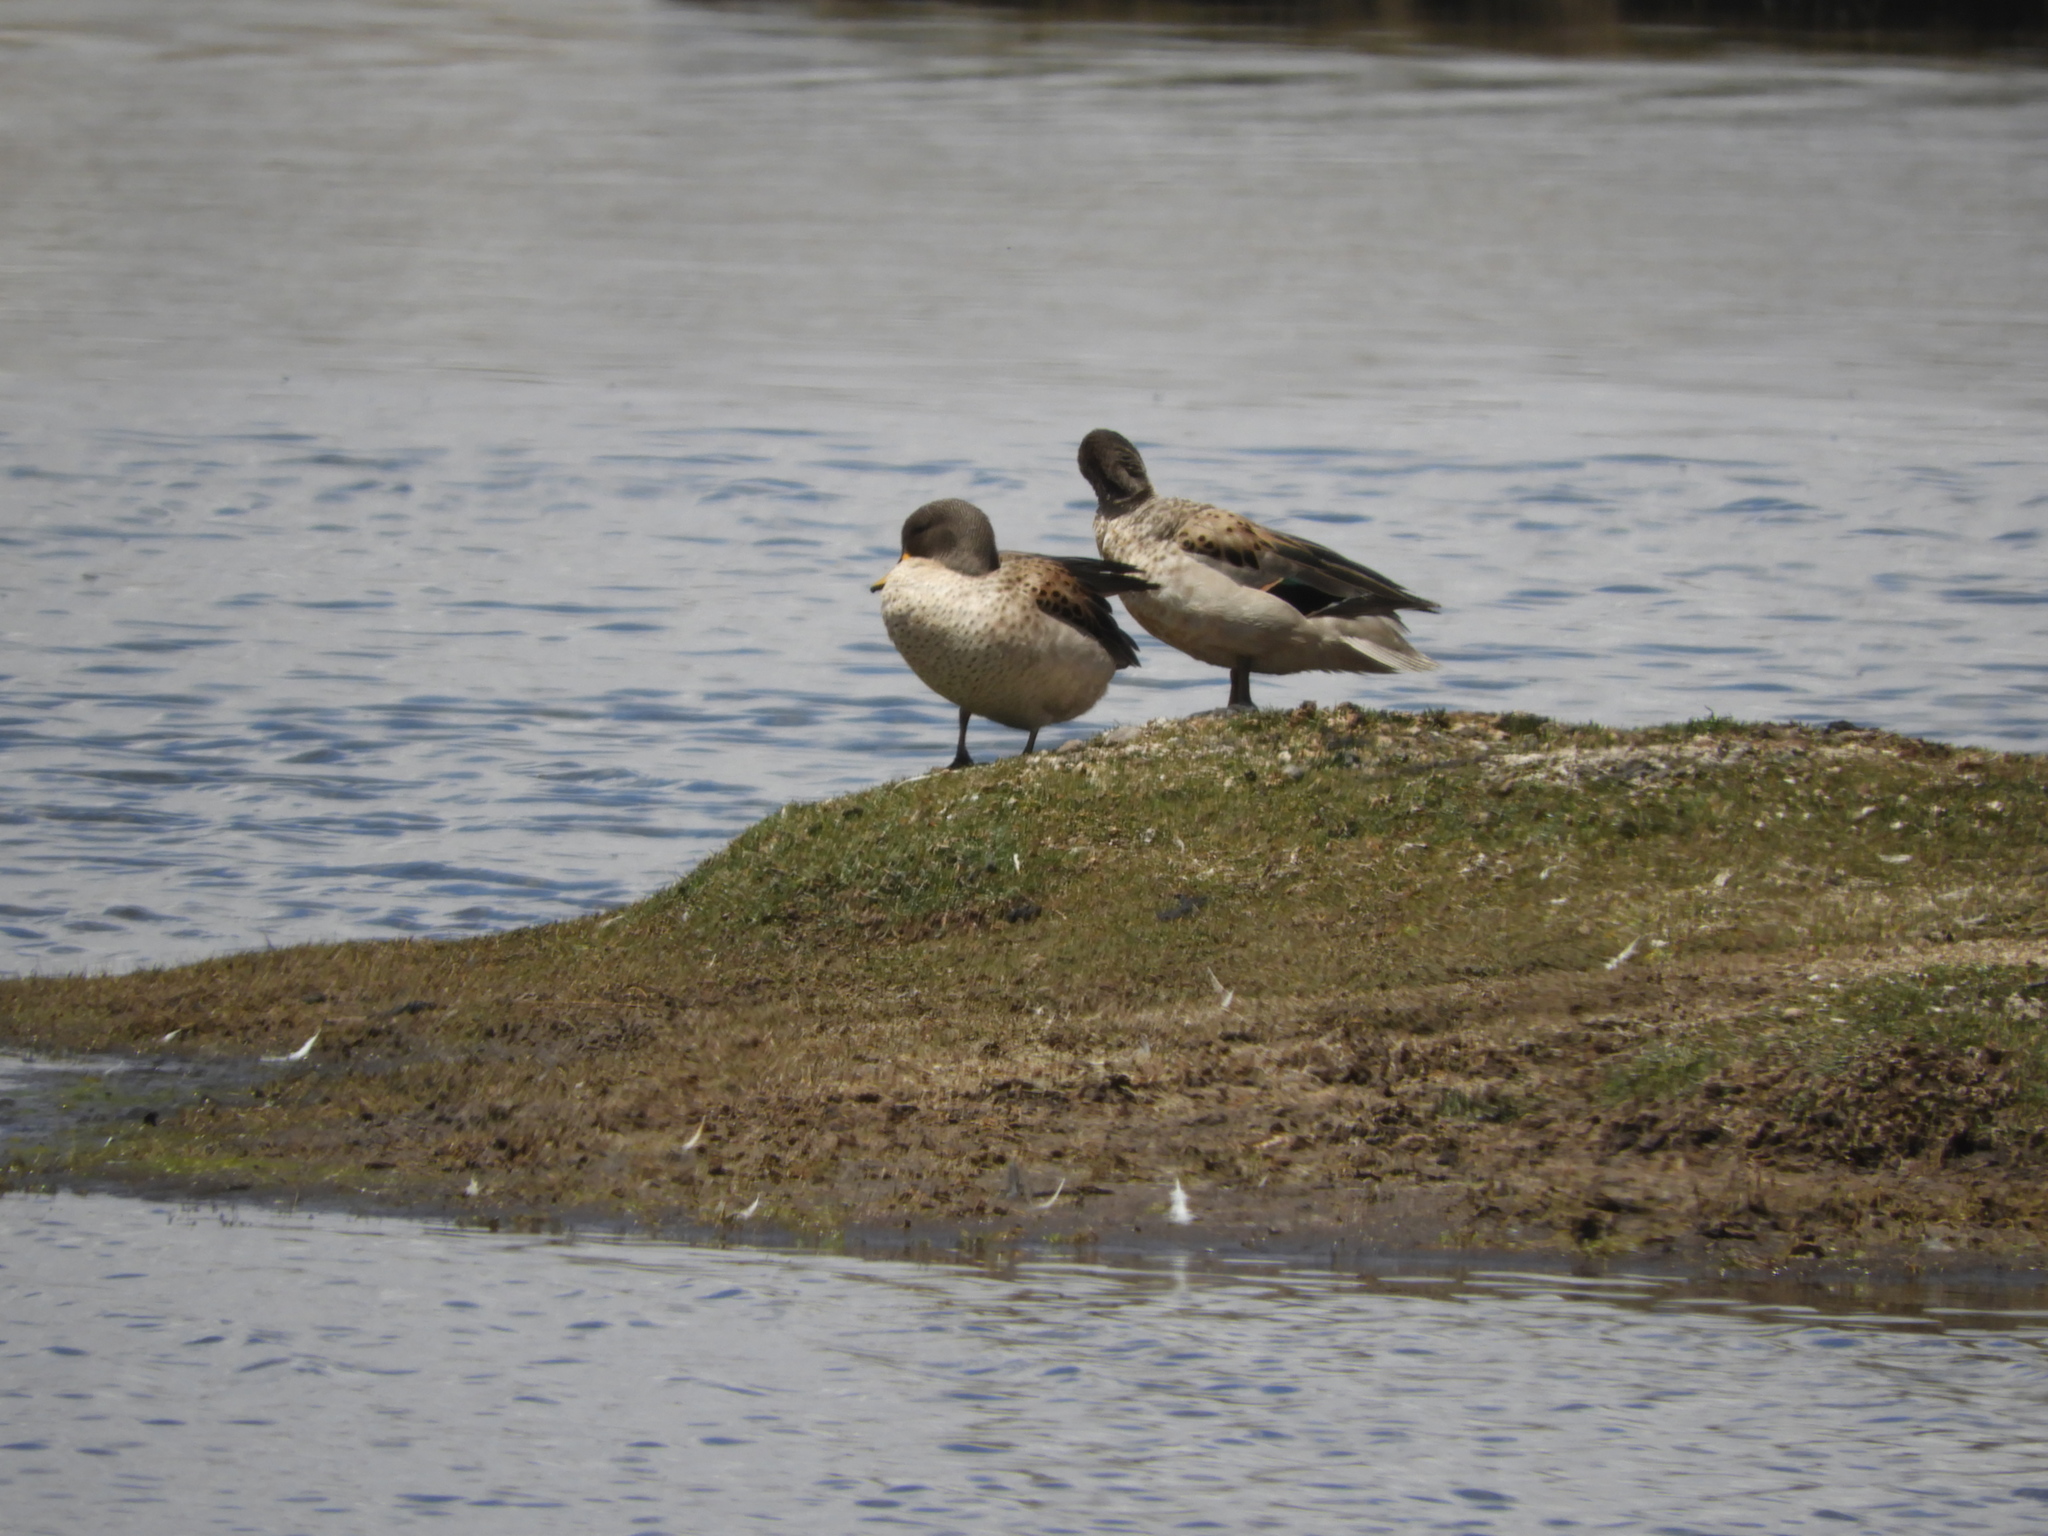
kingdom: Animalia
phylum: Chordata
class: Aves
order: Anseriformes
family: Anatidae
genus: Anas
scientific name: Anas flavirostris
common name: Yellow-billed teal
